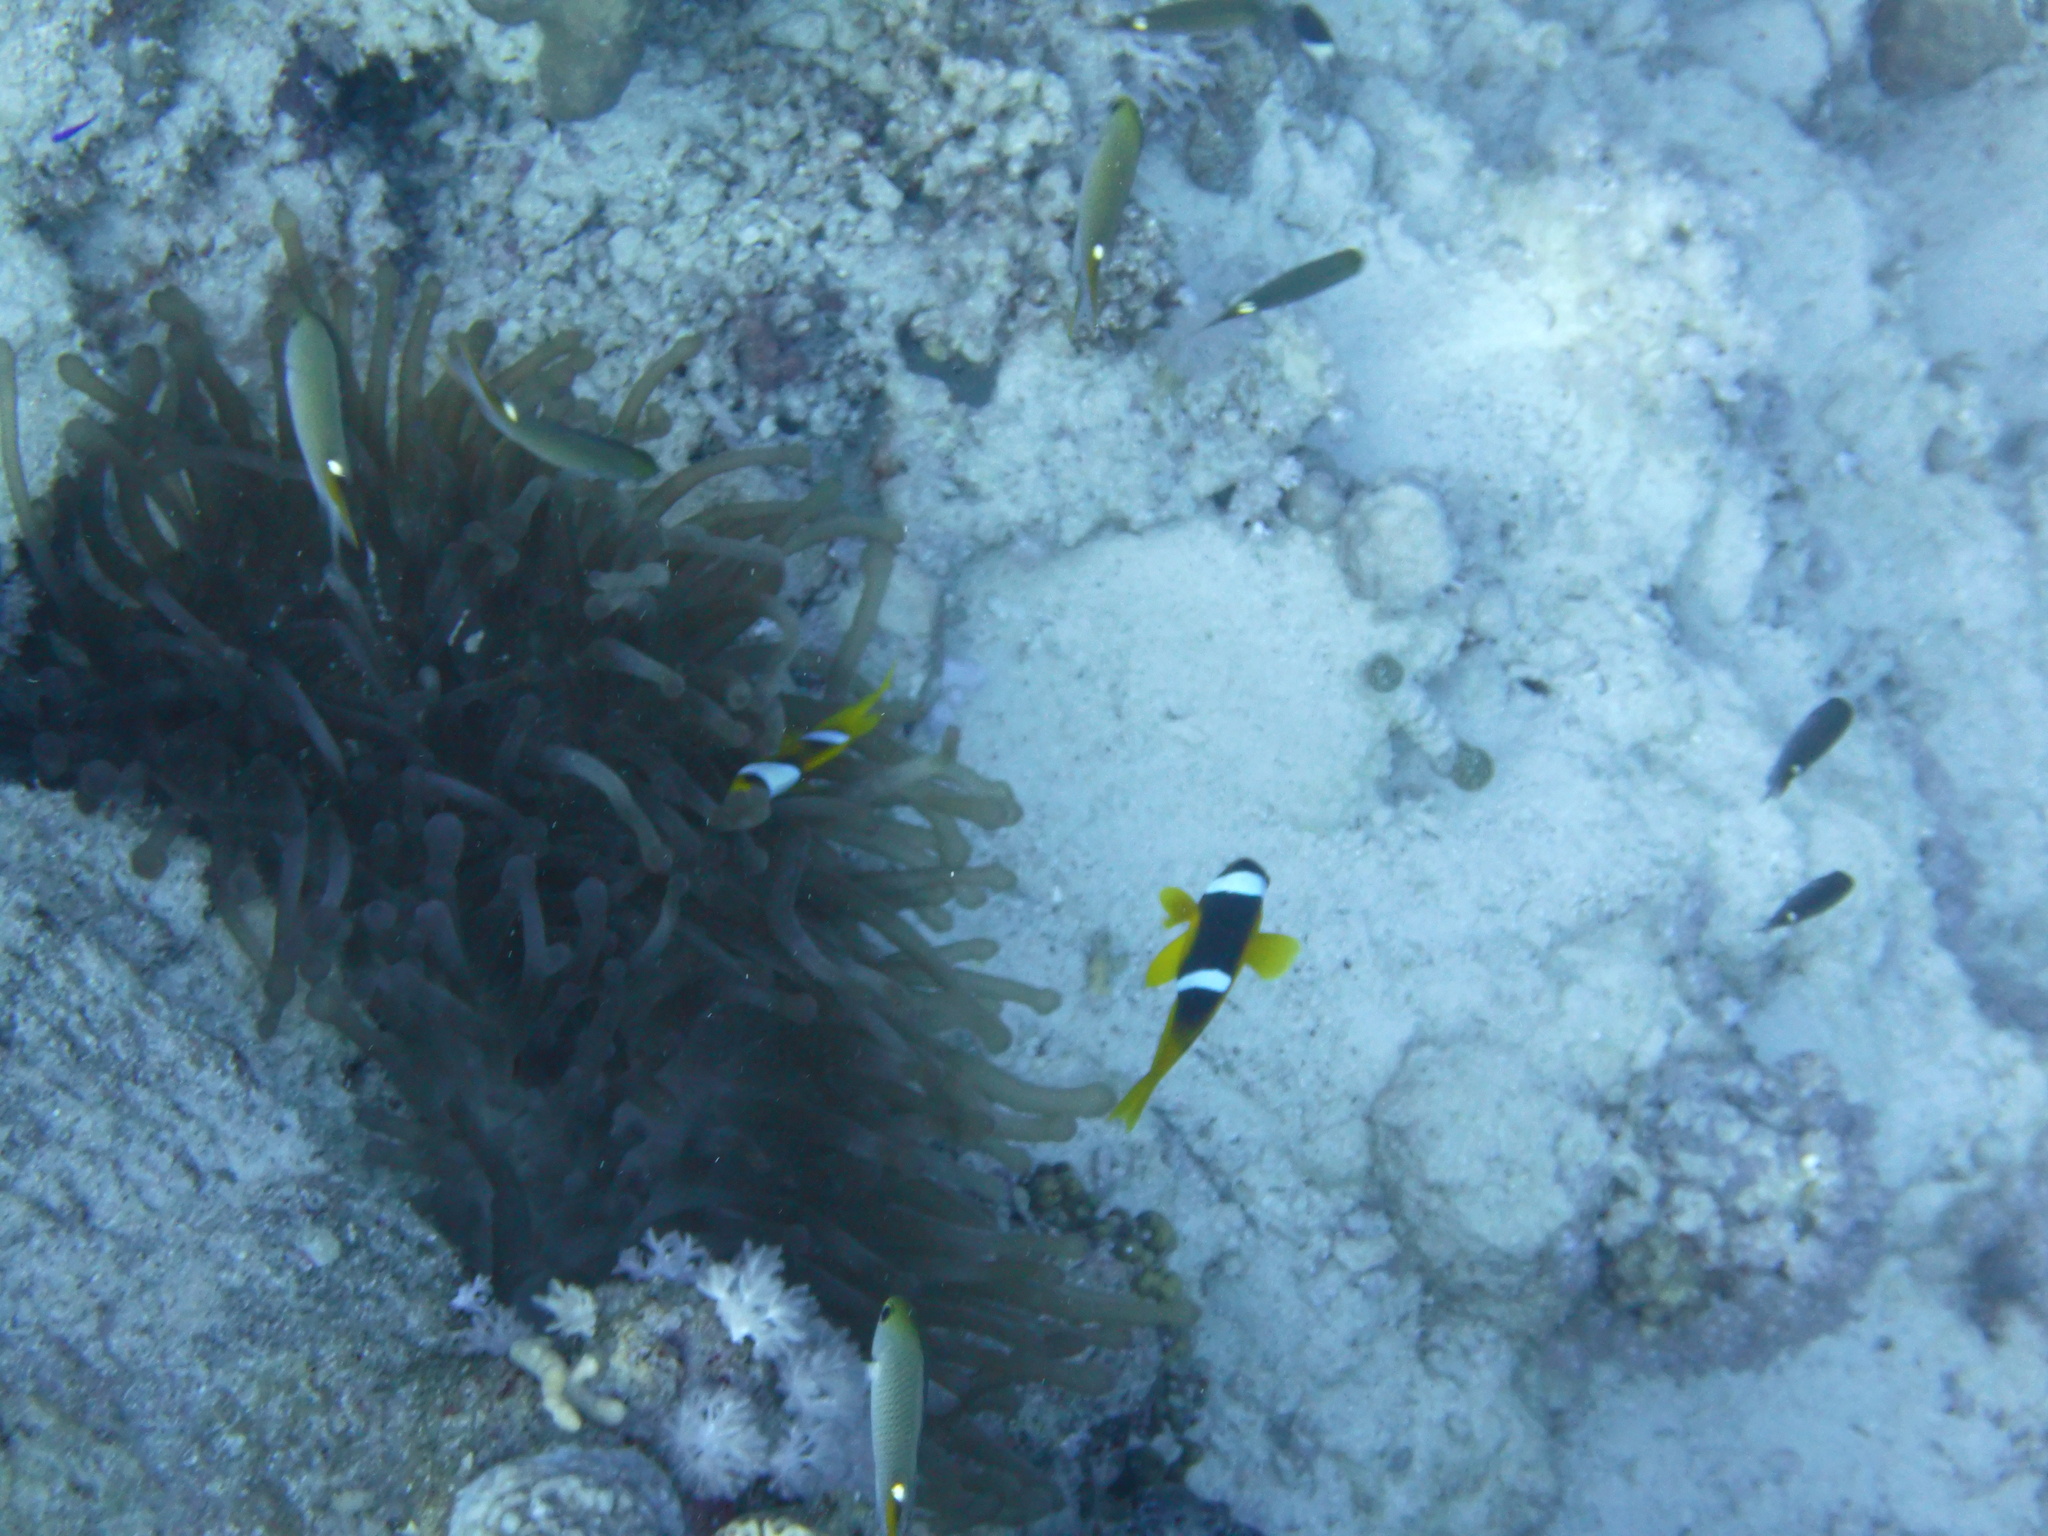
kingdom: Animalia
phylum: Chordata
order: Perciformes
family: Pomacentridae
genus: Amphiprion
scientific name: Amphiprion bicinctus
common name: Two-banded anemonefish
